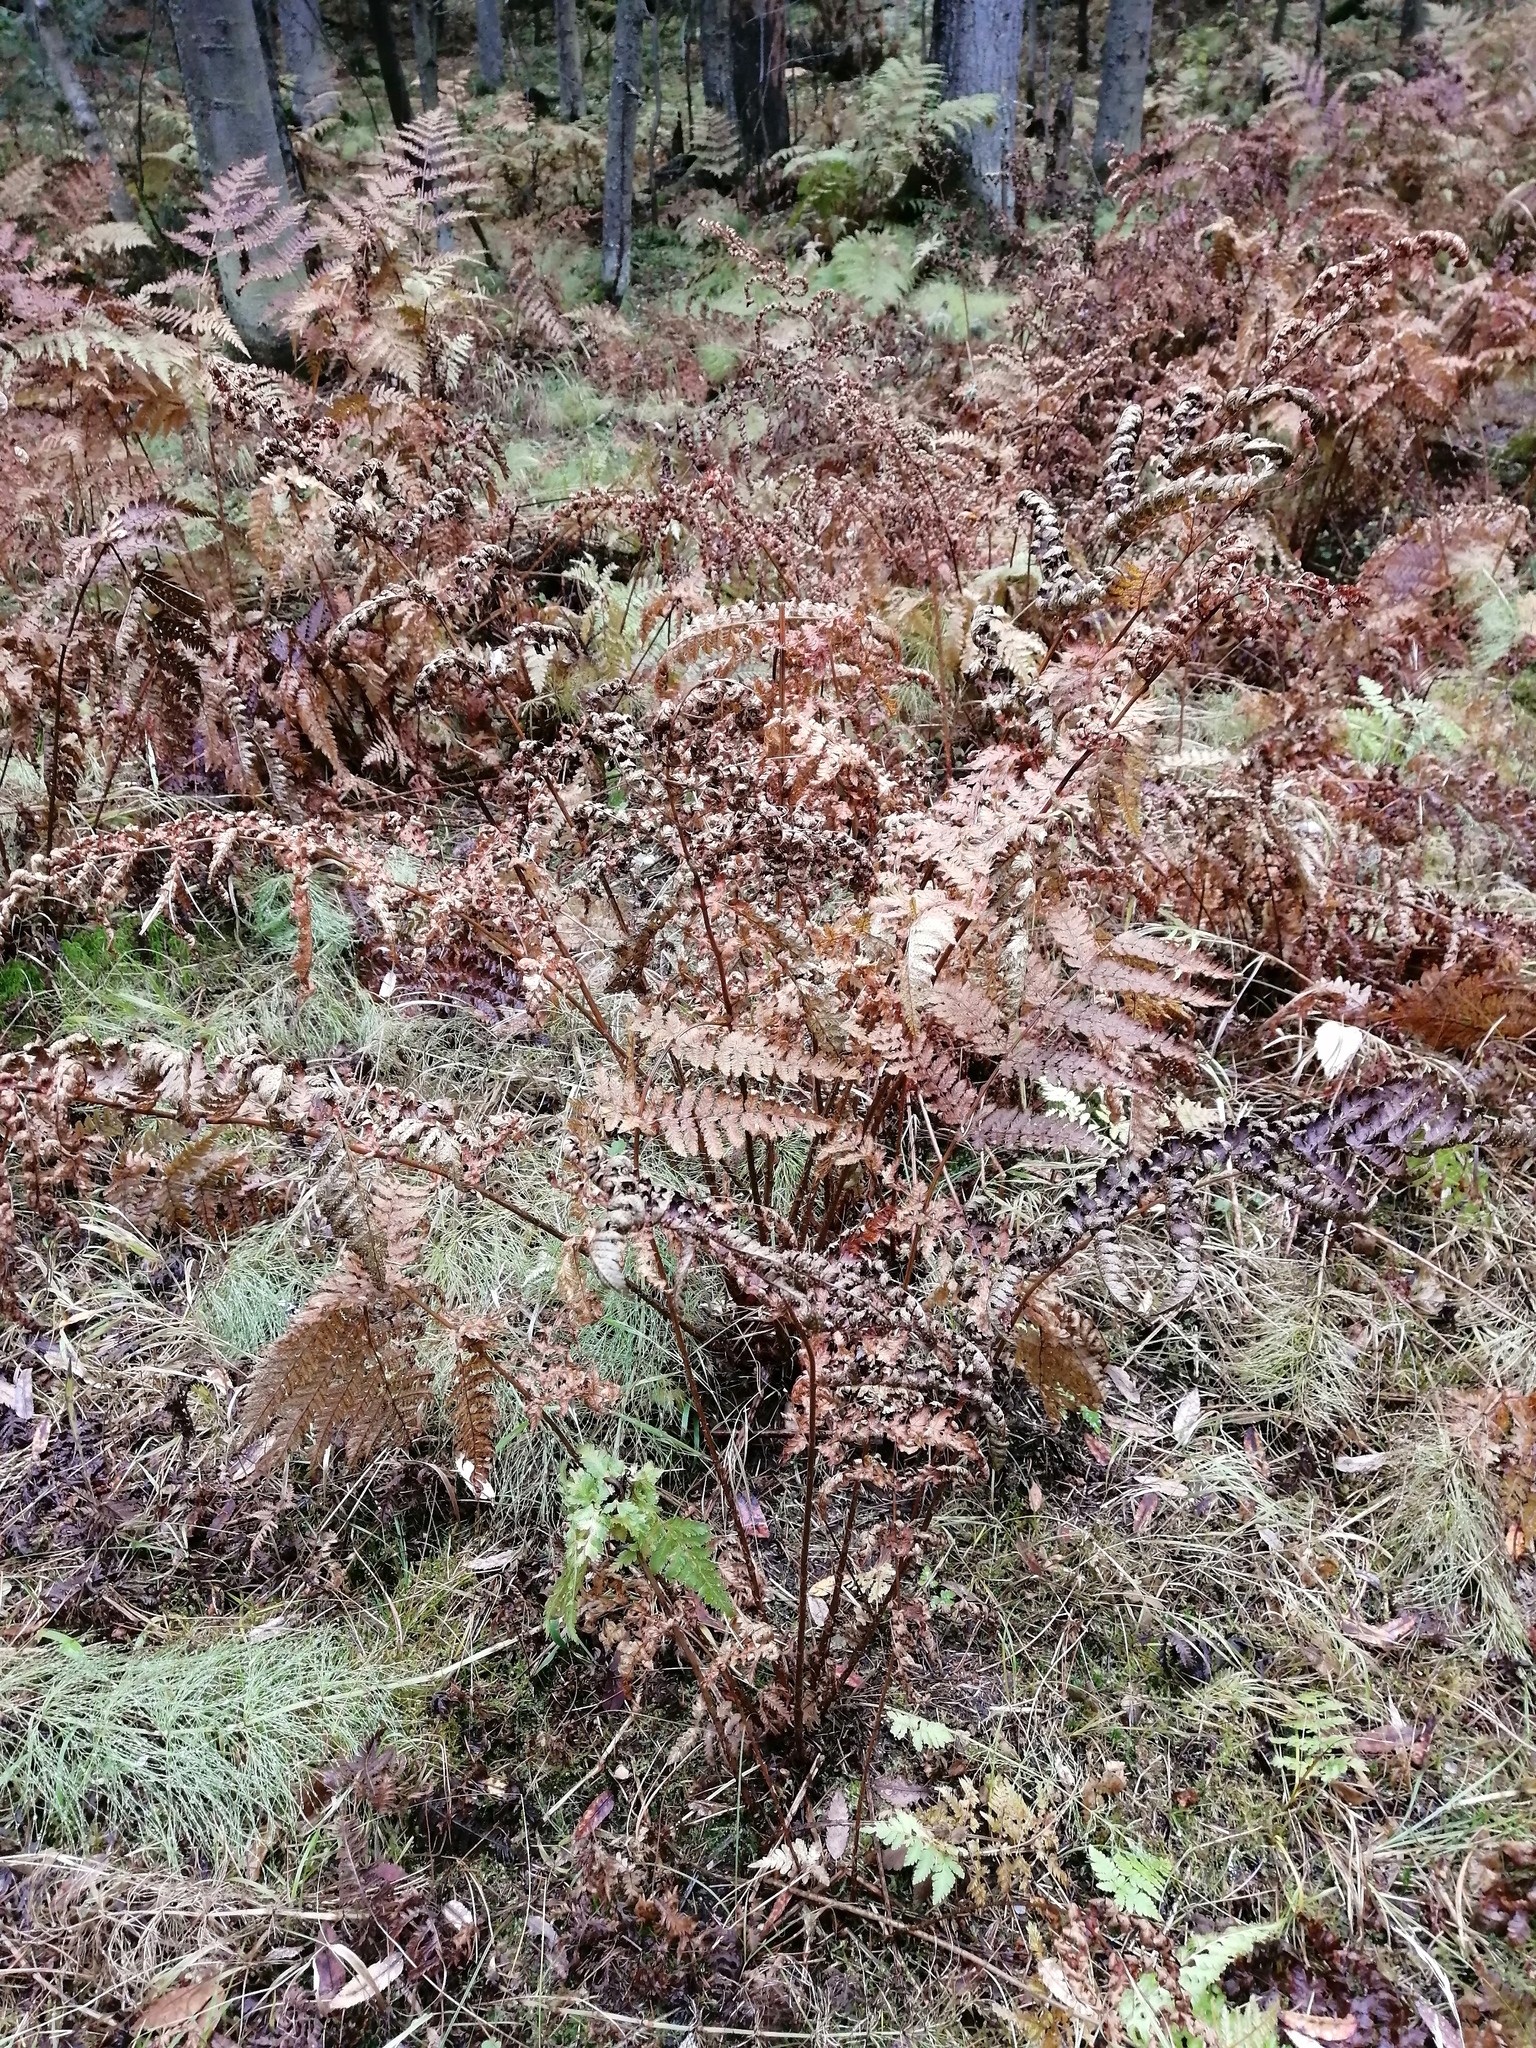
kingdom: Plantae
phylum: Tracheophyta
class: Polypodiopsida
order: Polypodiales
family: Dryopteridaceae
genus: Dryopteris
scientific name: Dryopteris expansa
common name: Northern buckler fern
